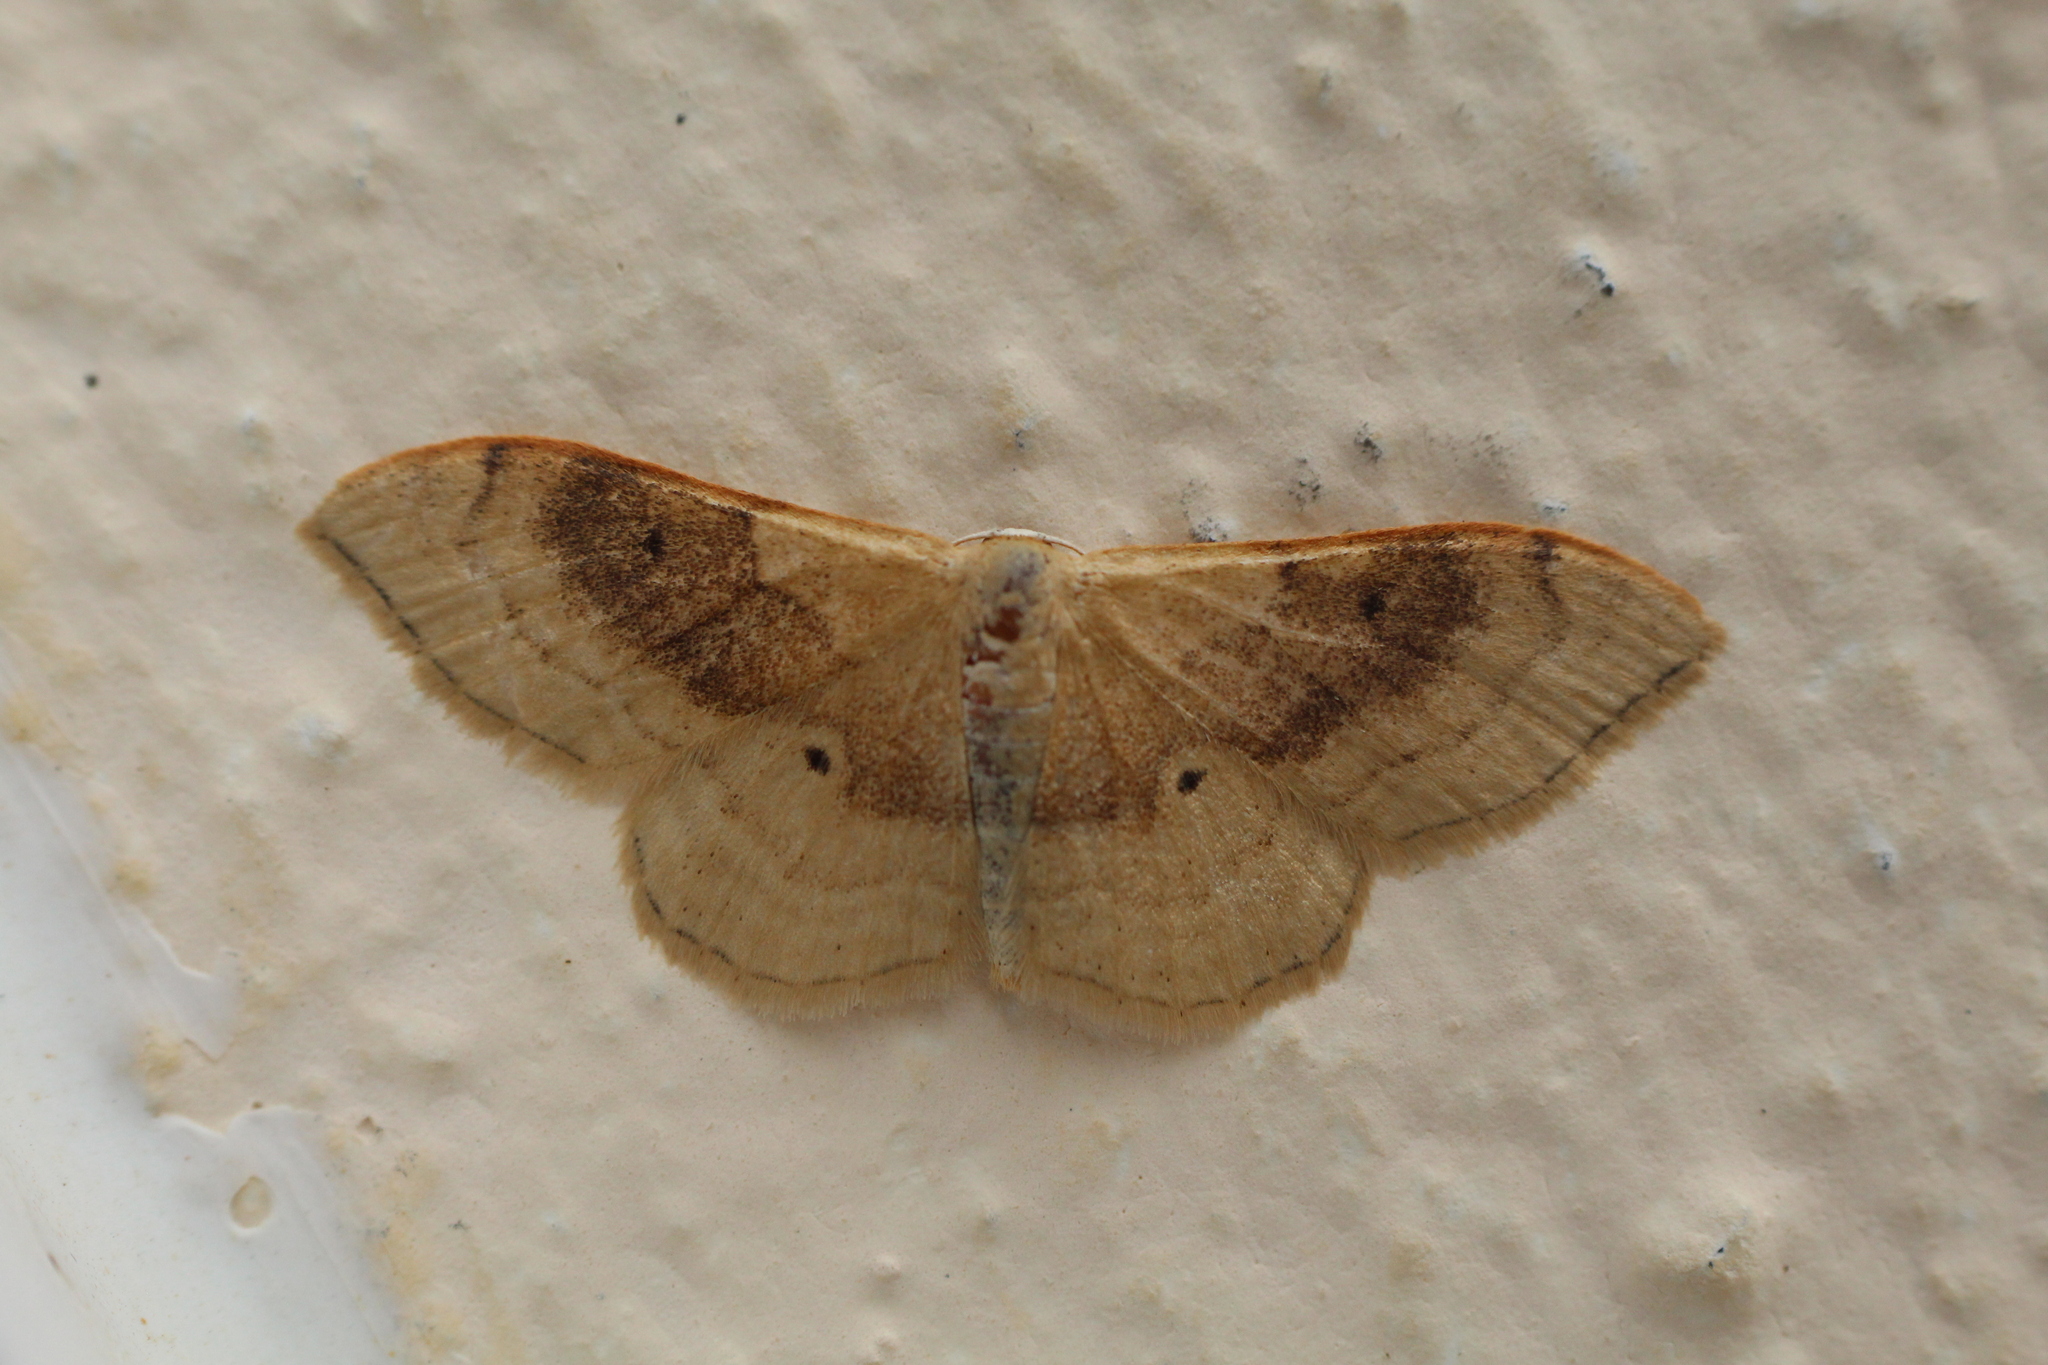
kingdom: Animalia
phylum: Arthropoda
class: Insecta
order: Lepidoptera
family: Geometridae
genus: Idaea
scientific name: Idaea degeneraria
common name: Portland ribbon wave
